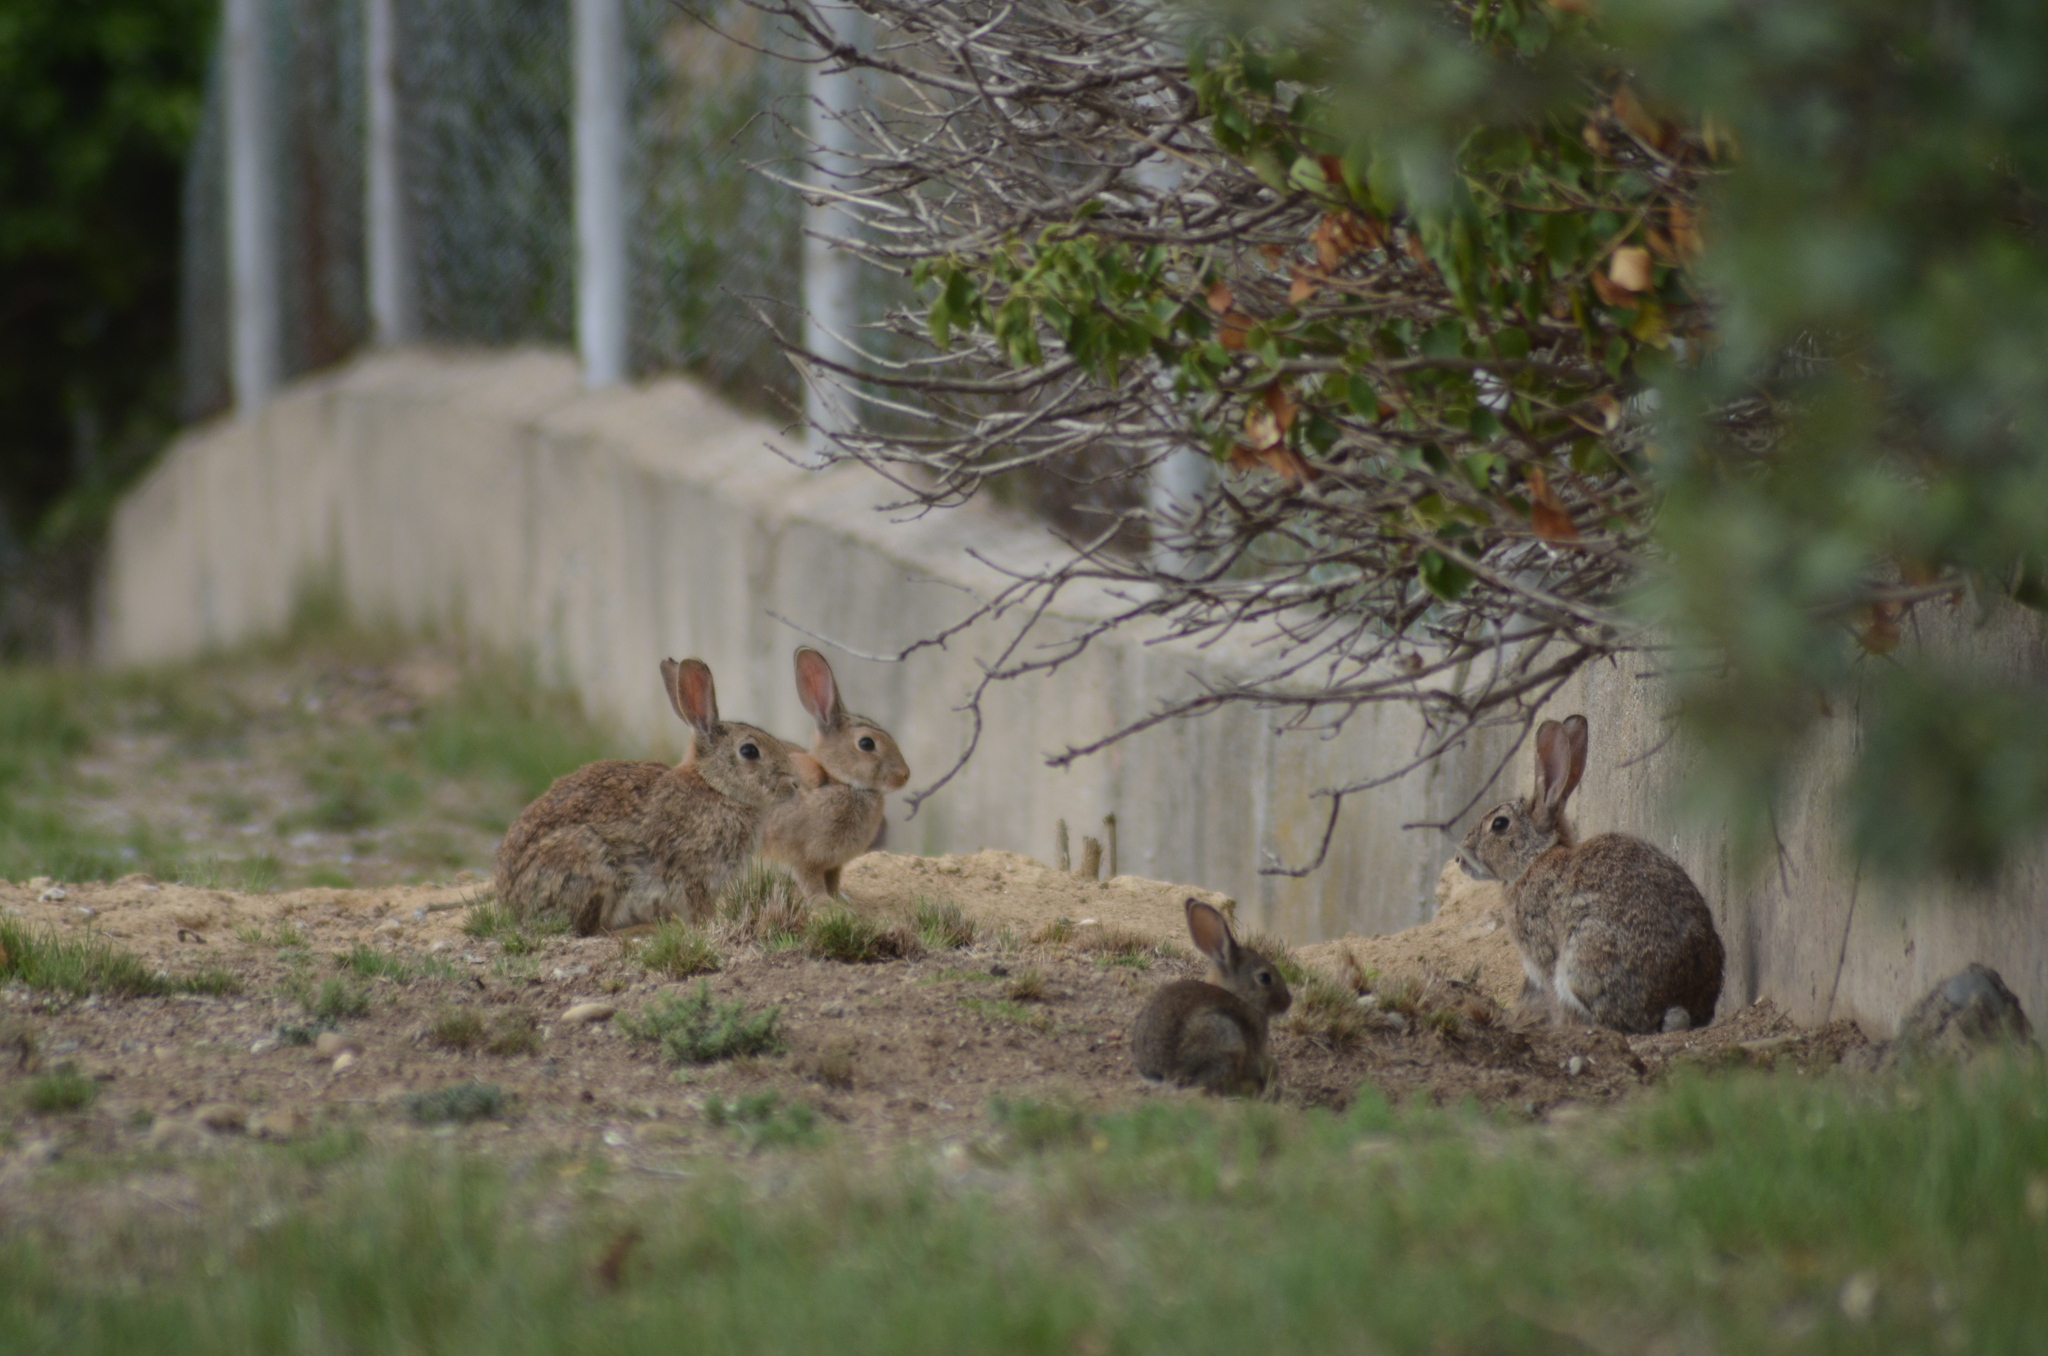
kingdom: Animalia
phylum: Chordata
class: Mammalia
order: Lagomorpha
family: Leporidae
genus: Oryctolagus
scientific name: Oryctolagus cuniculus
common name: European rabbit
